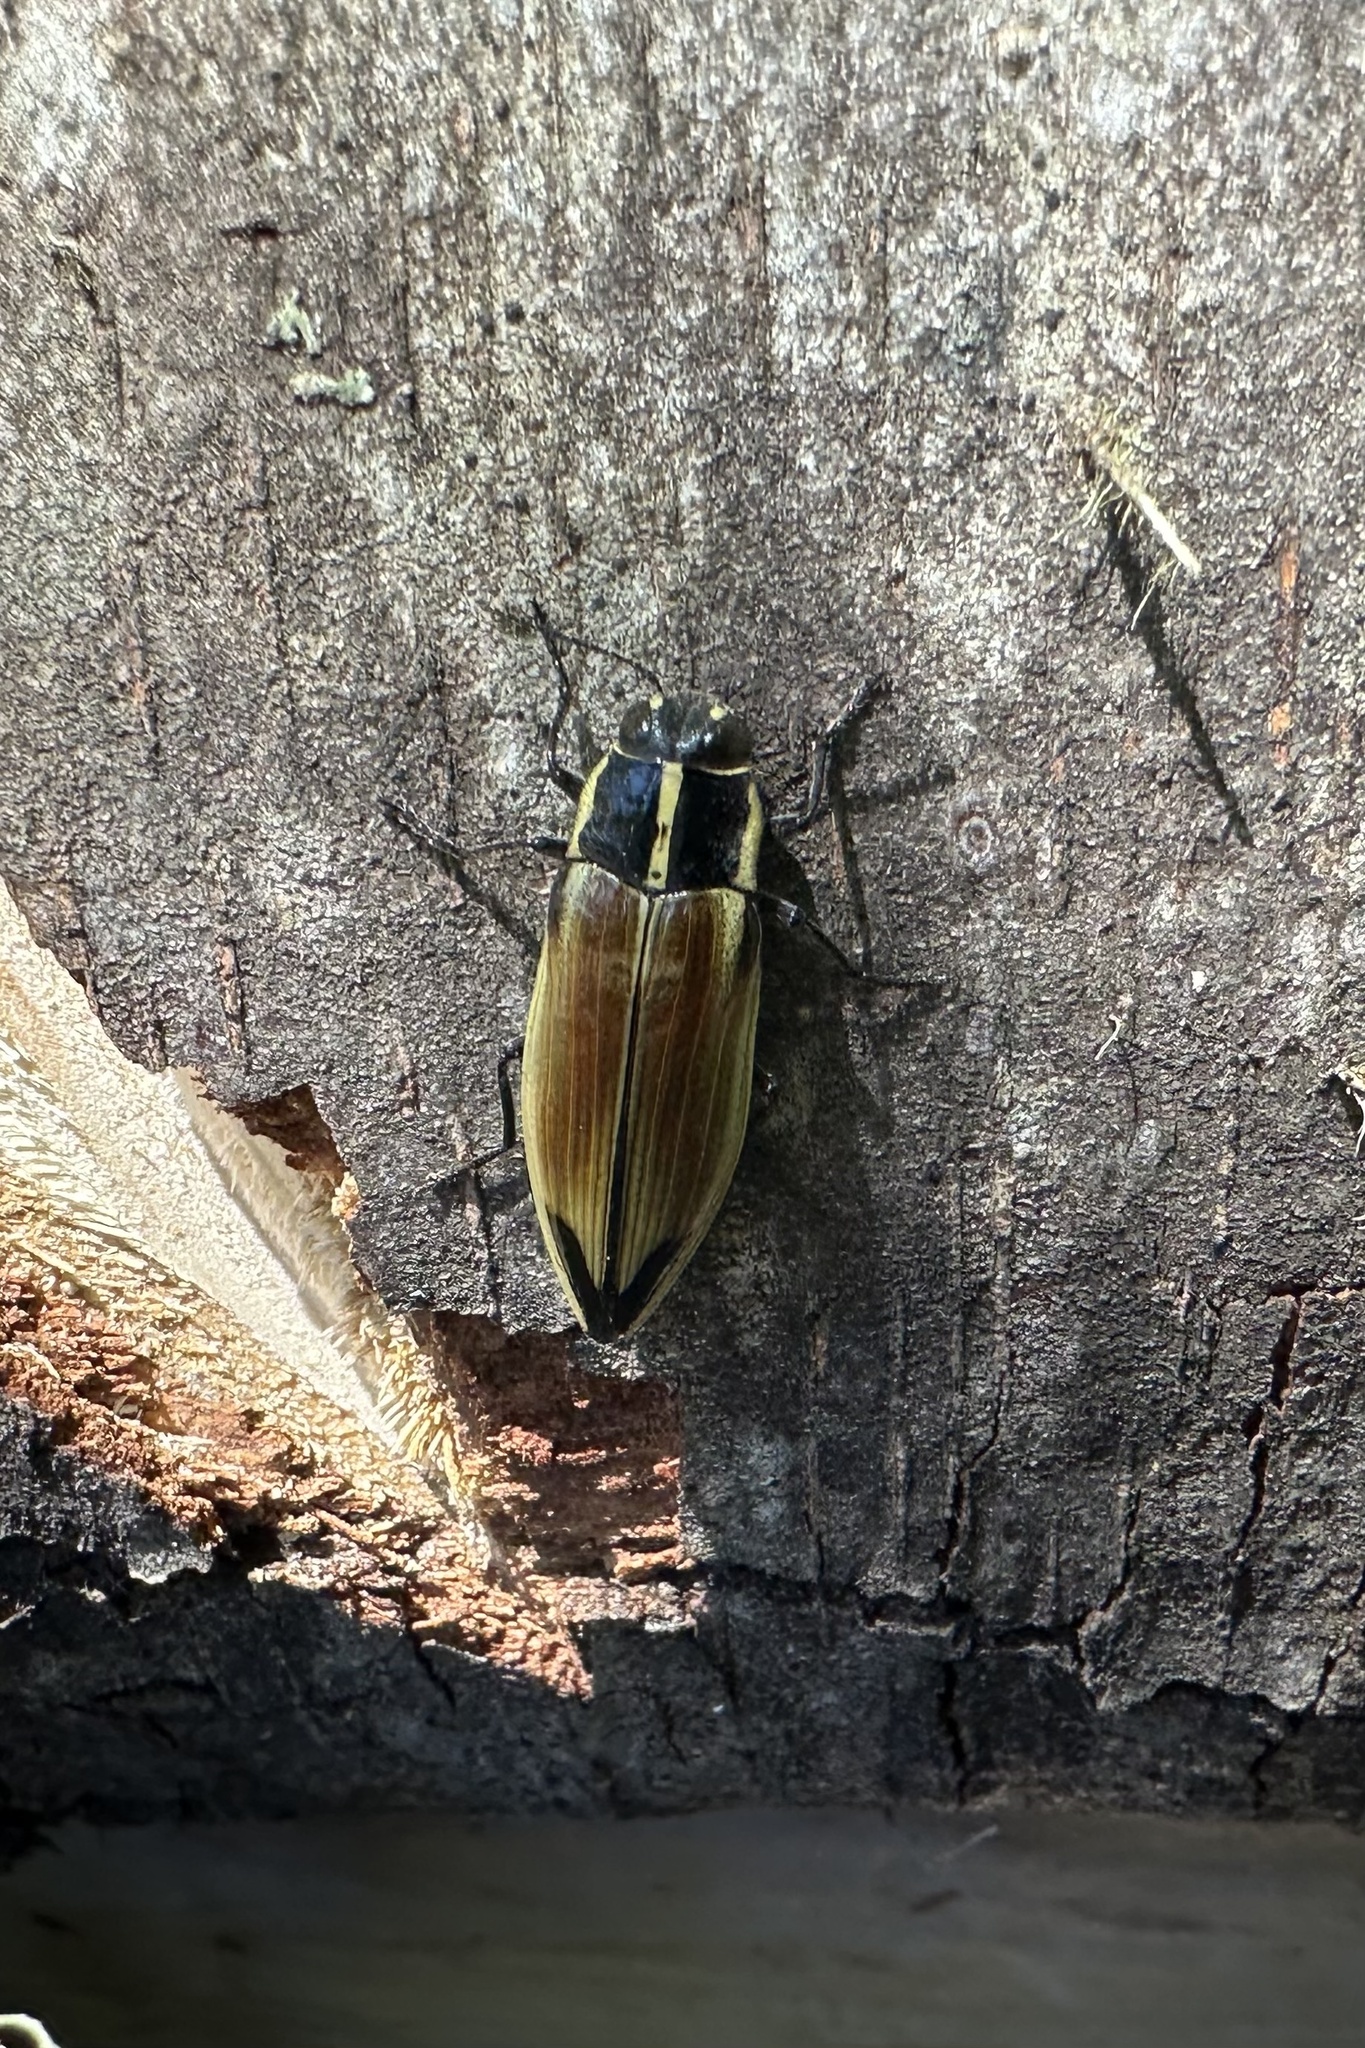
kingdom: Animalia
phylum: Arthropoda
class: Insecta
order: Coleoptera
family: Buprestidae
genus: Epistomentis
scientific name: Epistomentis pictus
